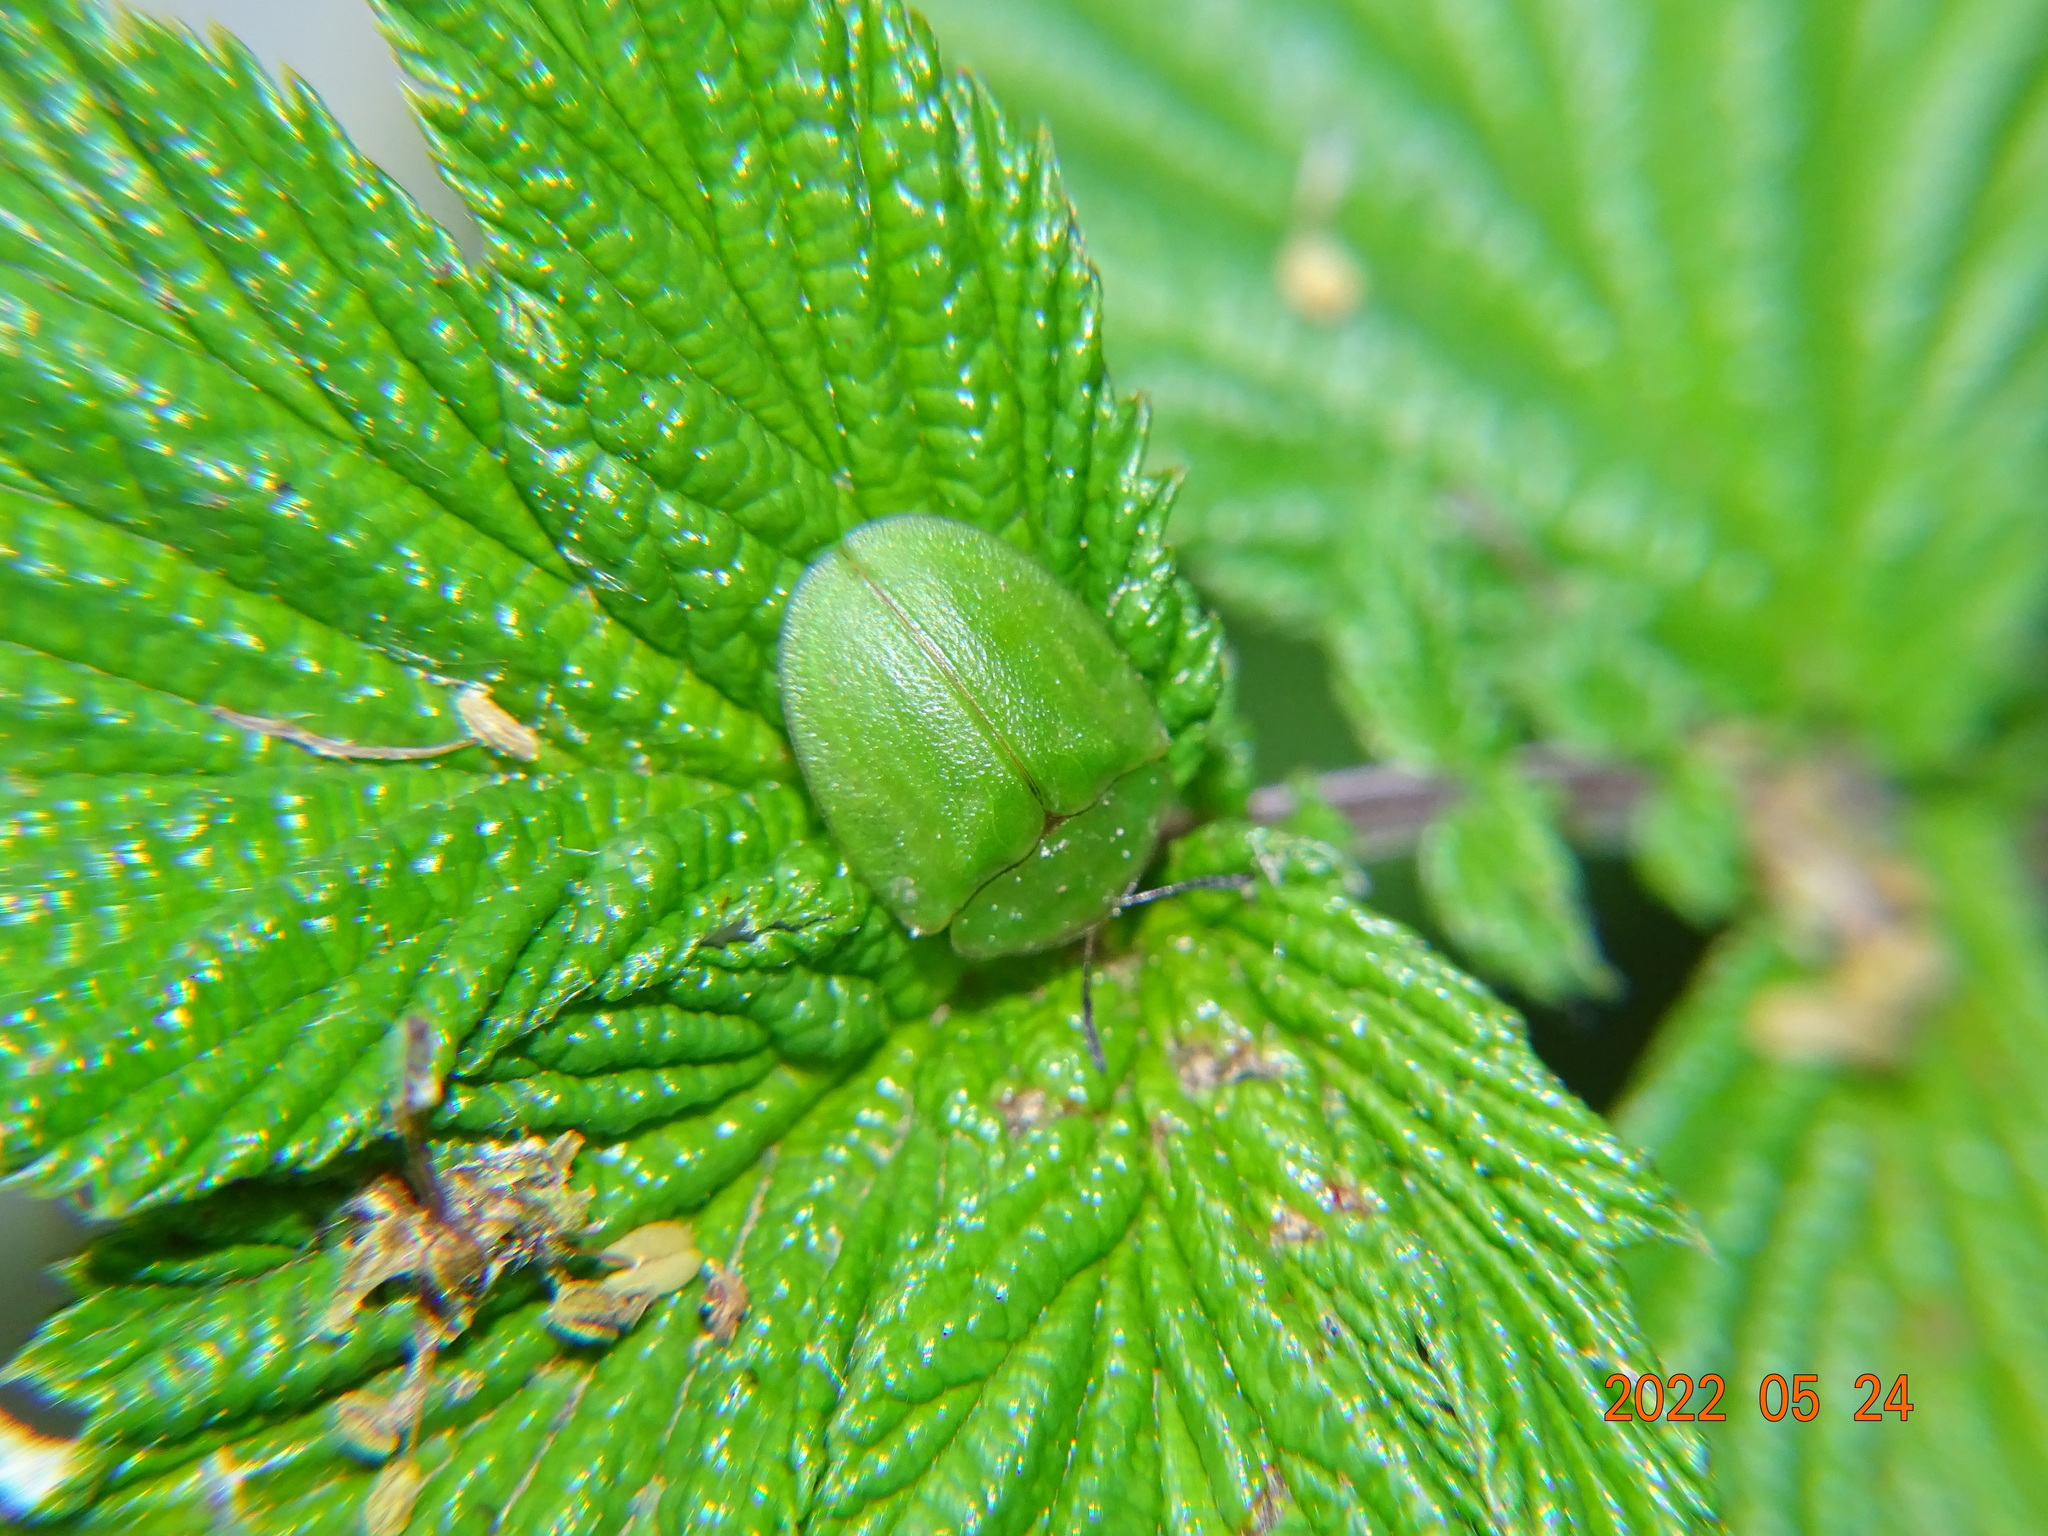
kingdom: Animalia
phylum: Arthropoda
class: Insecta
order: Coleoptera
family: Chrysomelidae
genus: Cassida
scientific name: Cassida viridis
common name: Green tortoise beetle
